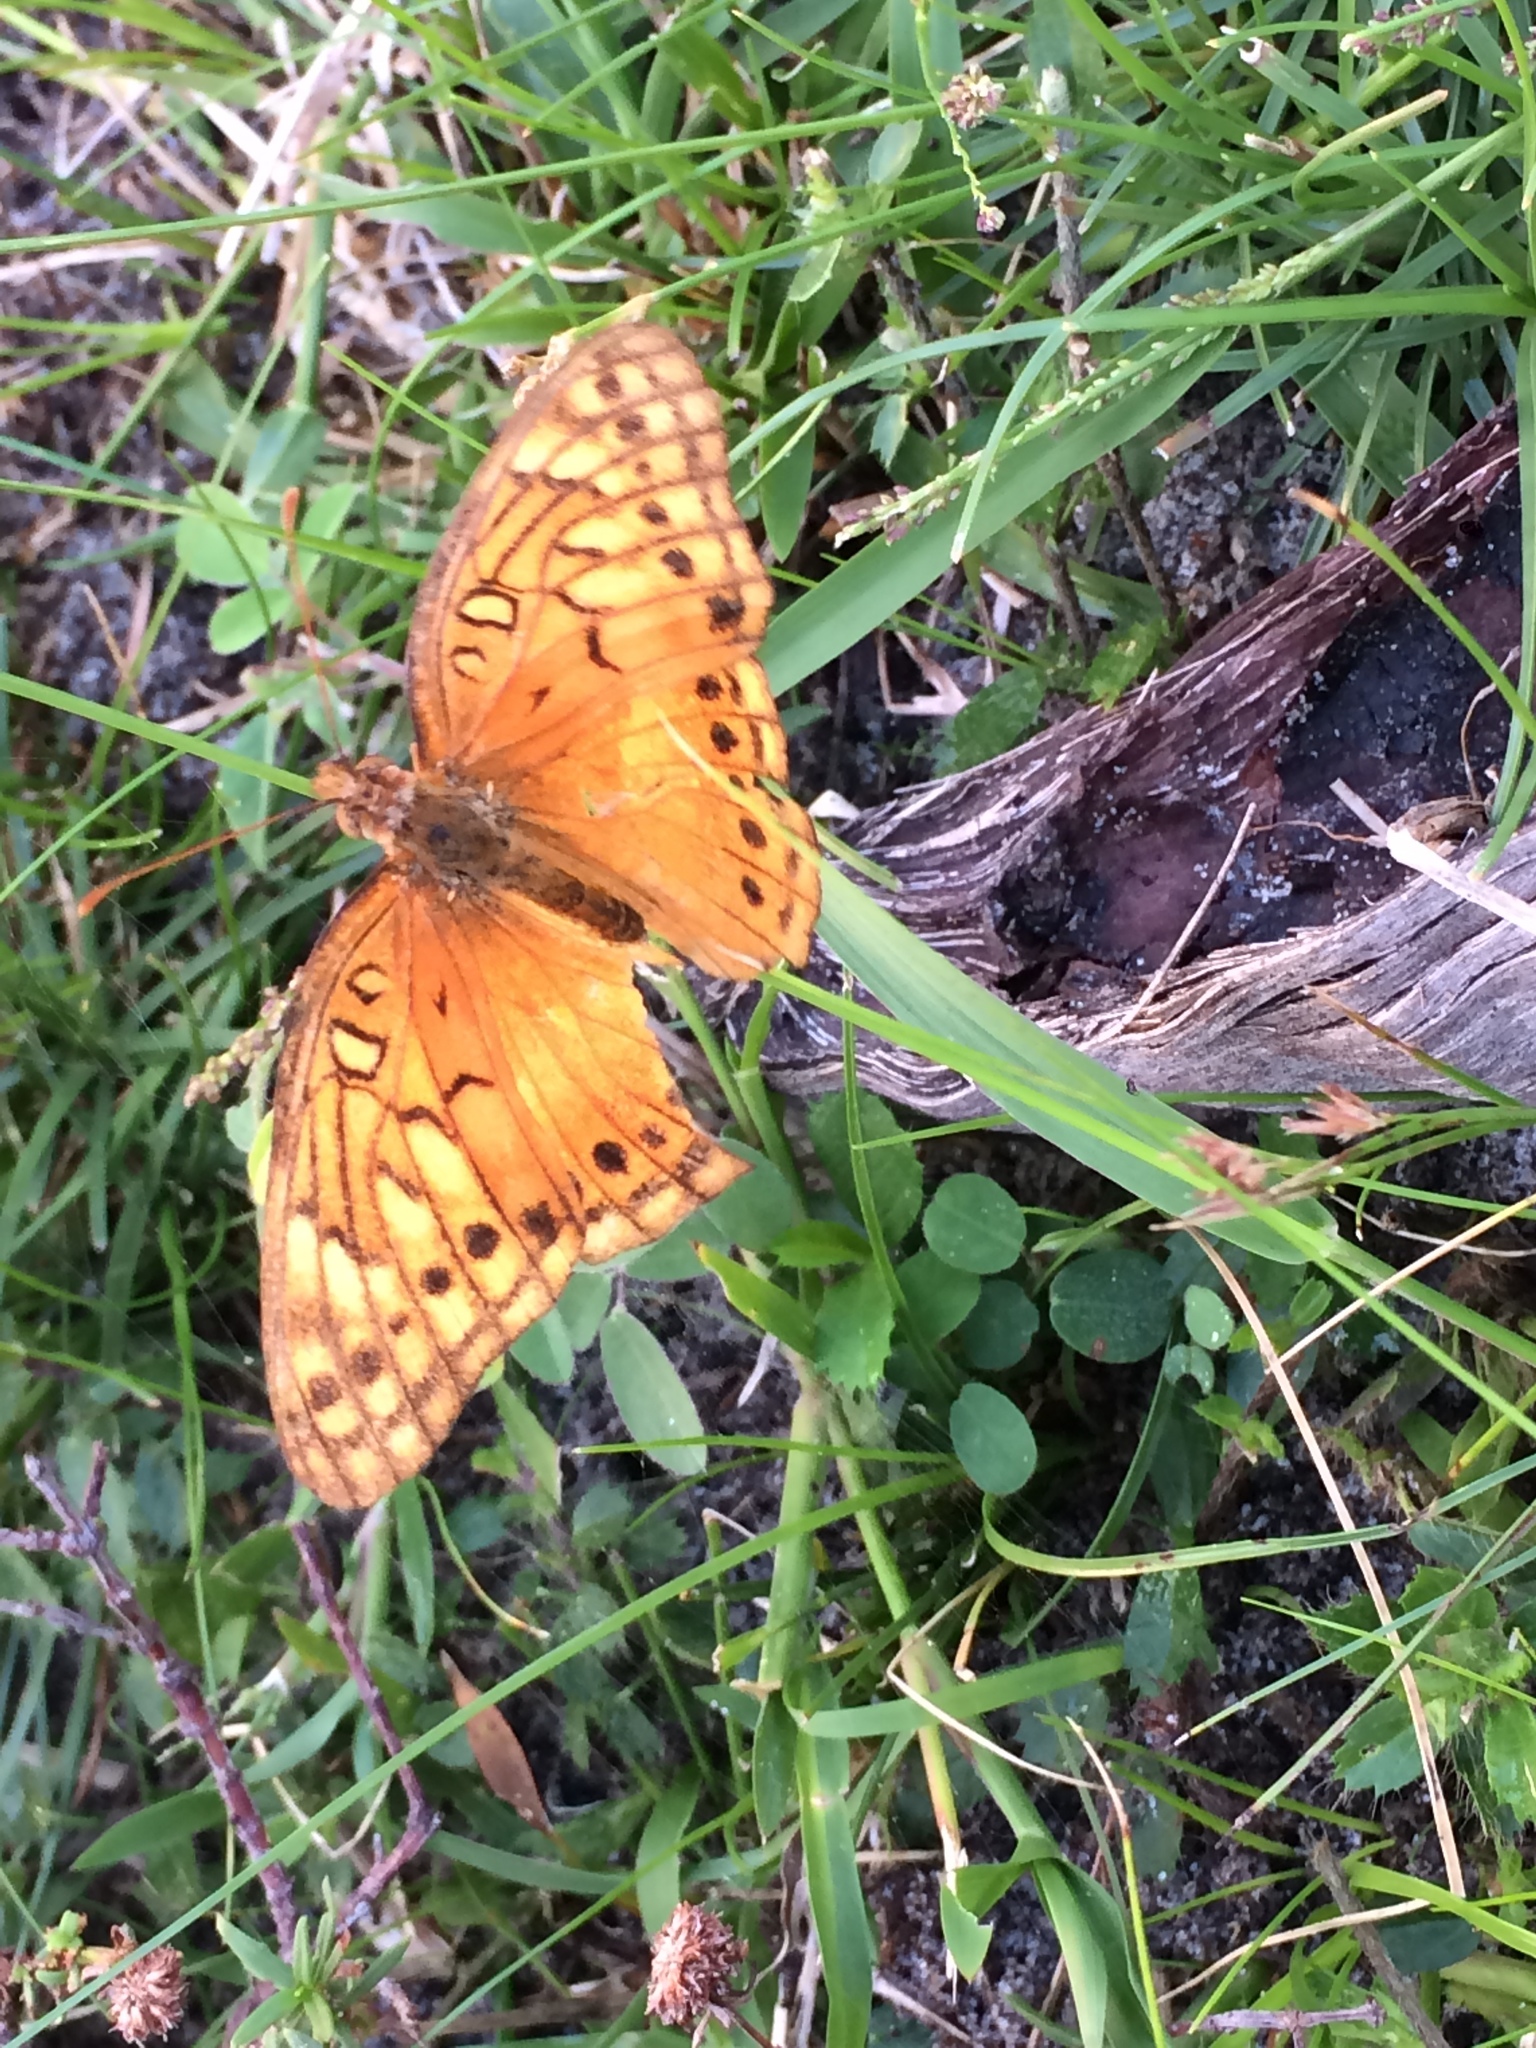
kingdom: Animalia
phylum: Arthropoda
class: Insecta
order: Lepidoptera
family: Nymphalidae
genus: Euptoieta
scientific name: Euptoieta hegesia
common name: Mexican fritillary
